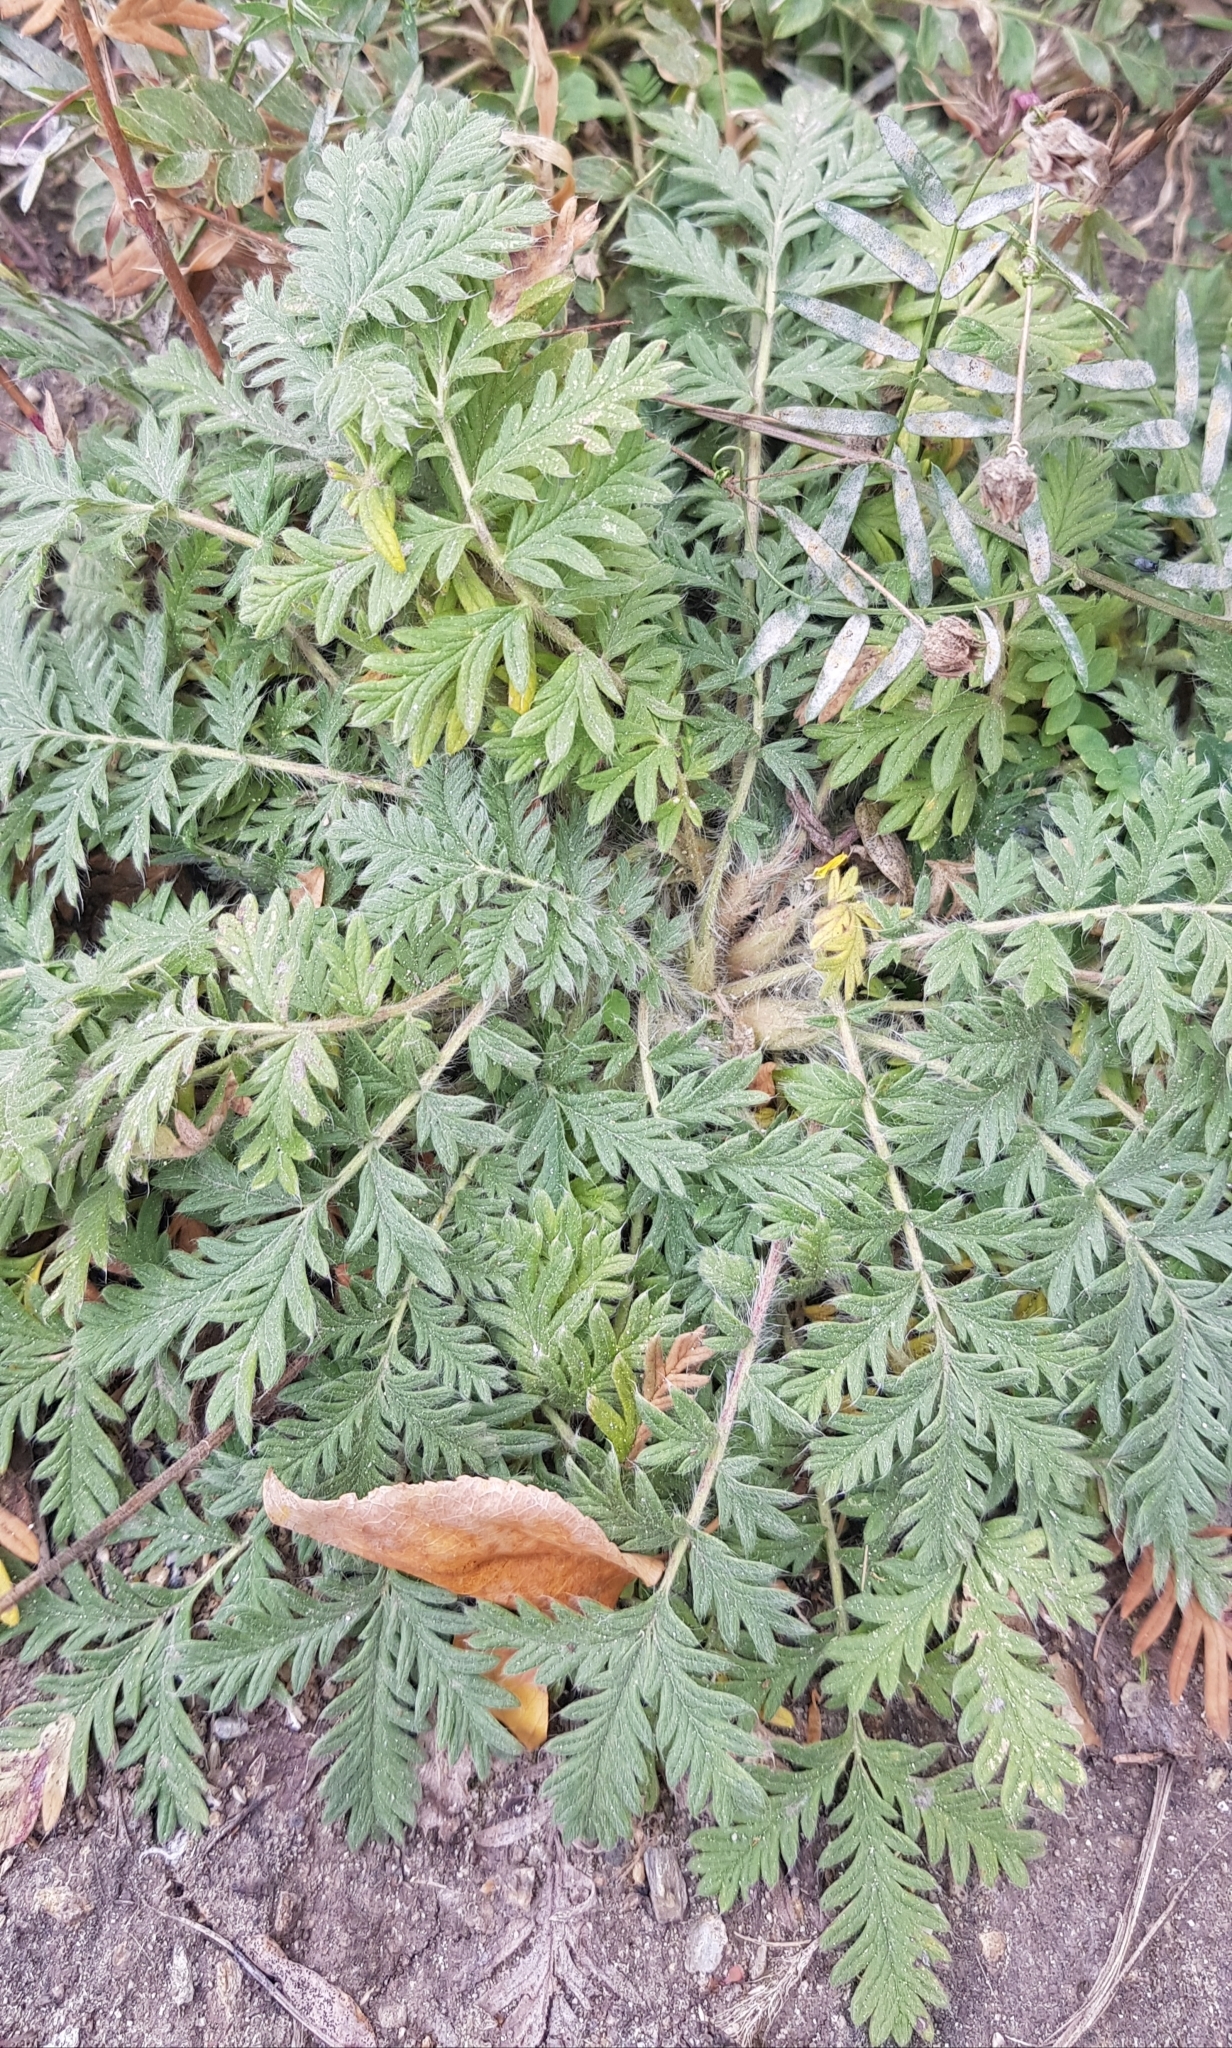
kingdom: Plantae
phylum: Tracheophyta
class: Magnoliopsida
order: Rosales
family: Rosaceae
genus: Potentilla
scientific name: Potentilla tergemina
